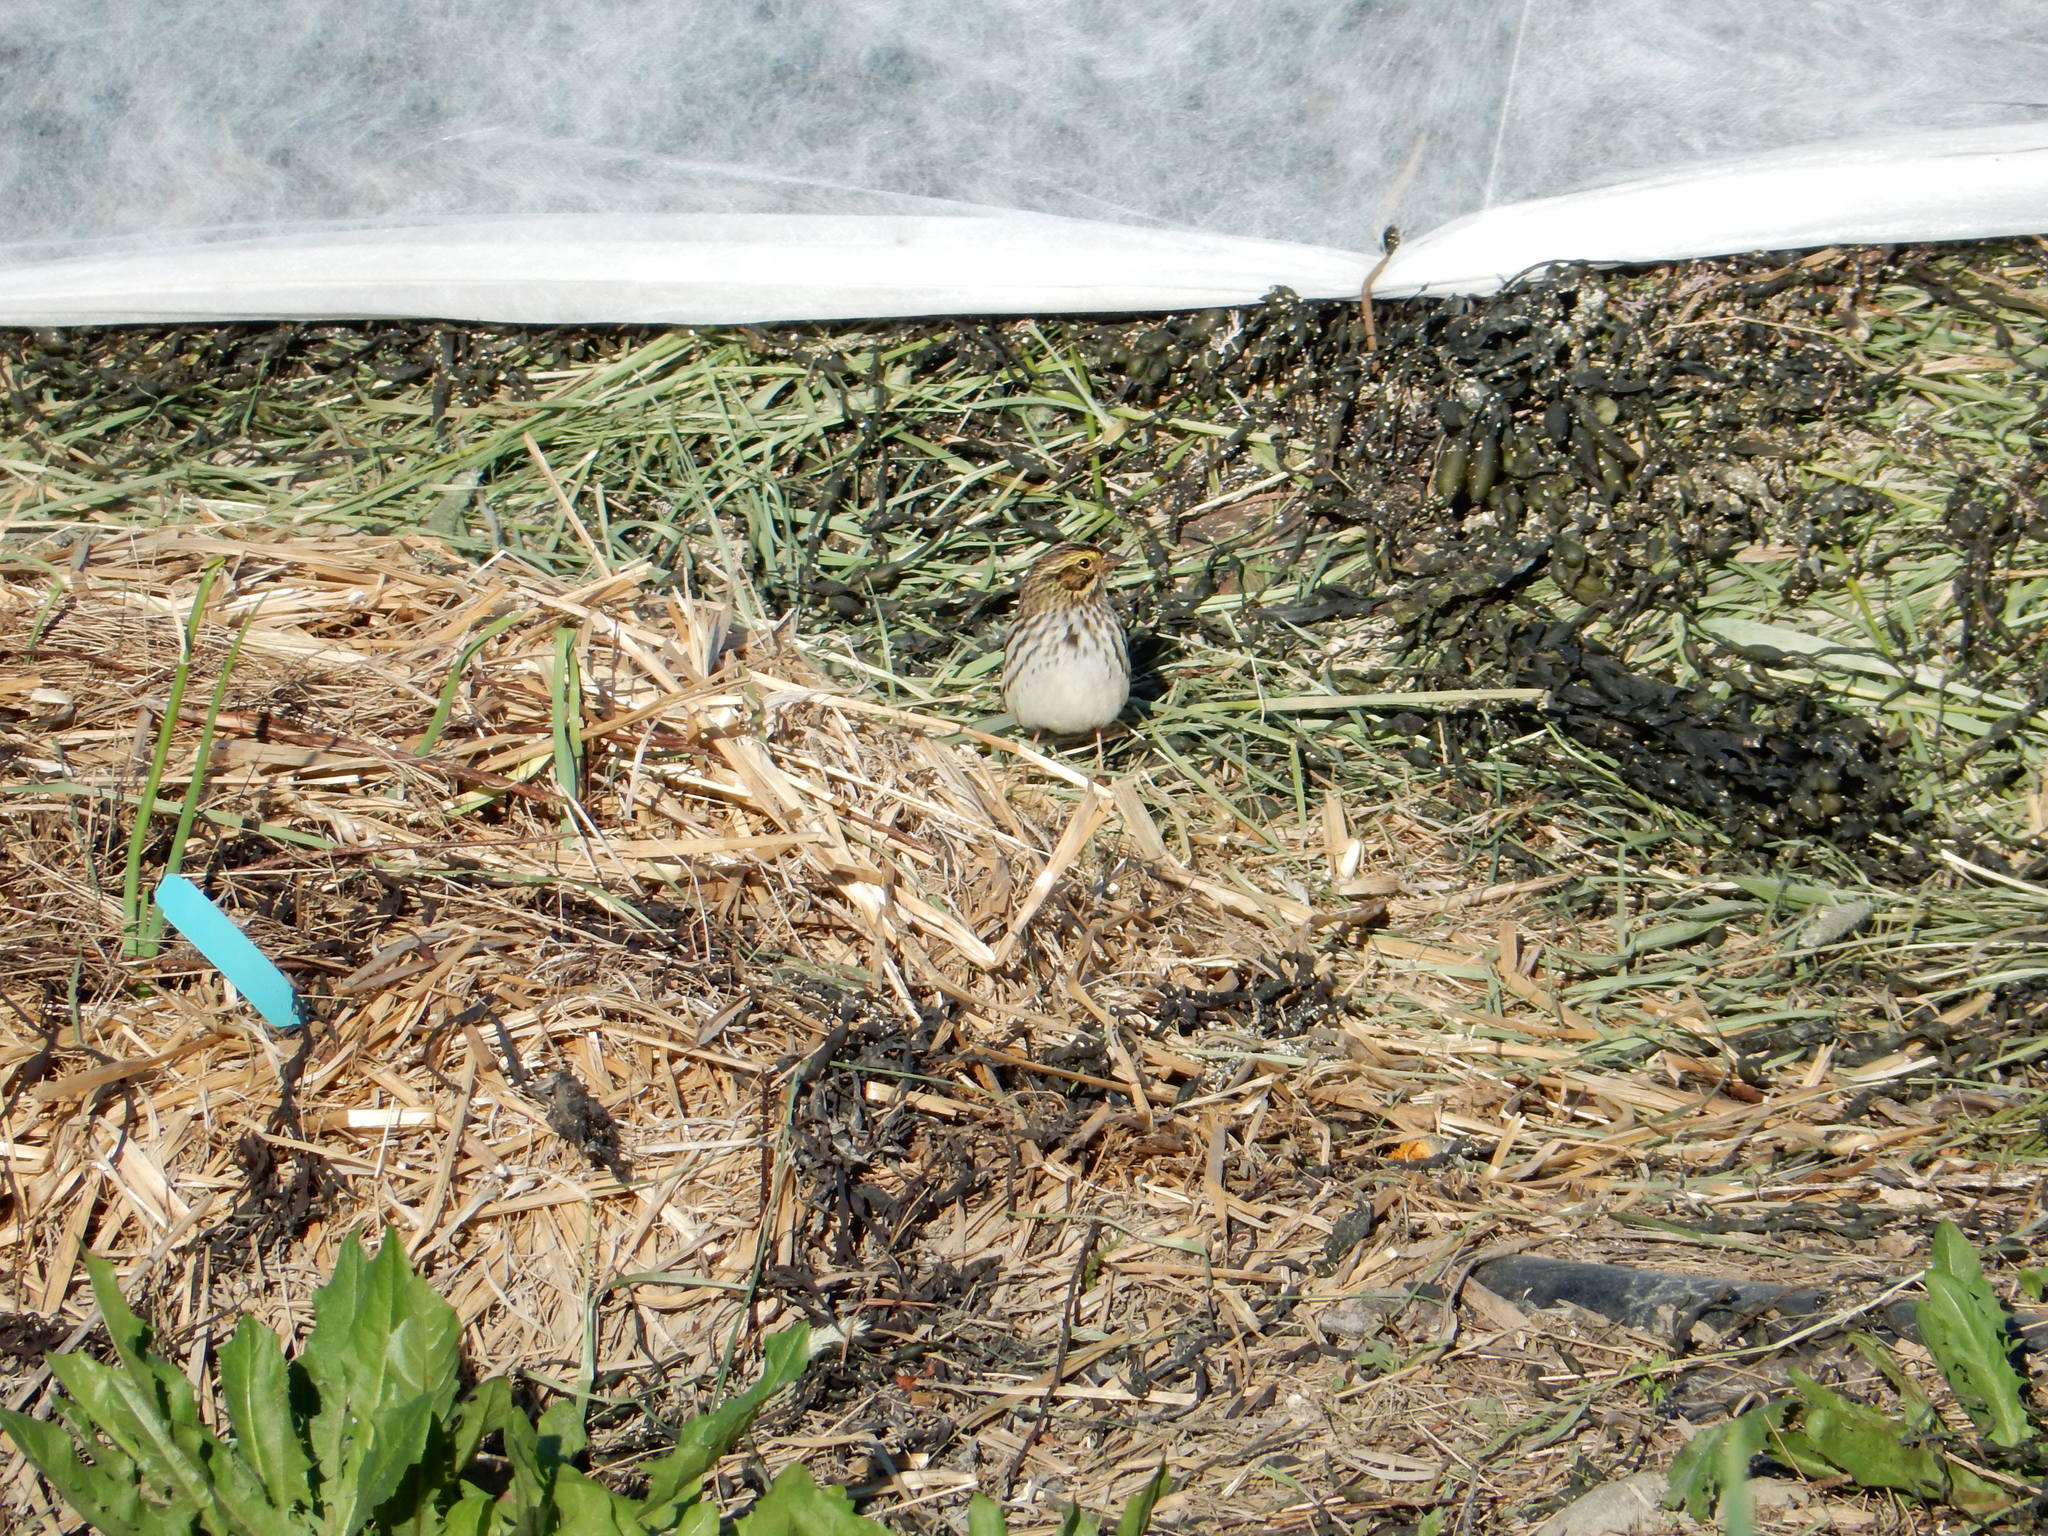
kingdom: Animalia
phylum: Chordata
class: Aves
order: Passeriformes
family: Passerellidae
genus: Passerculus
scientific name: Passerculus sandwichensis
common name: Savannah sparrow
